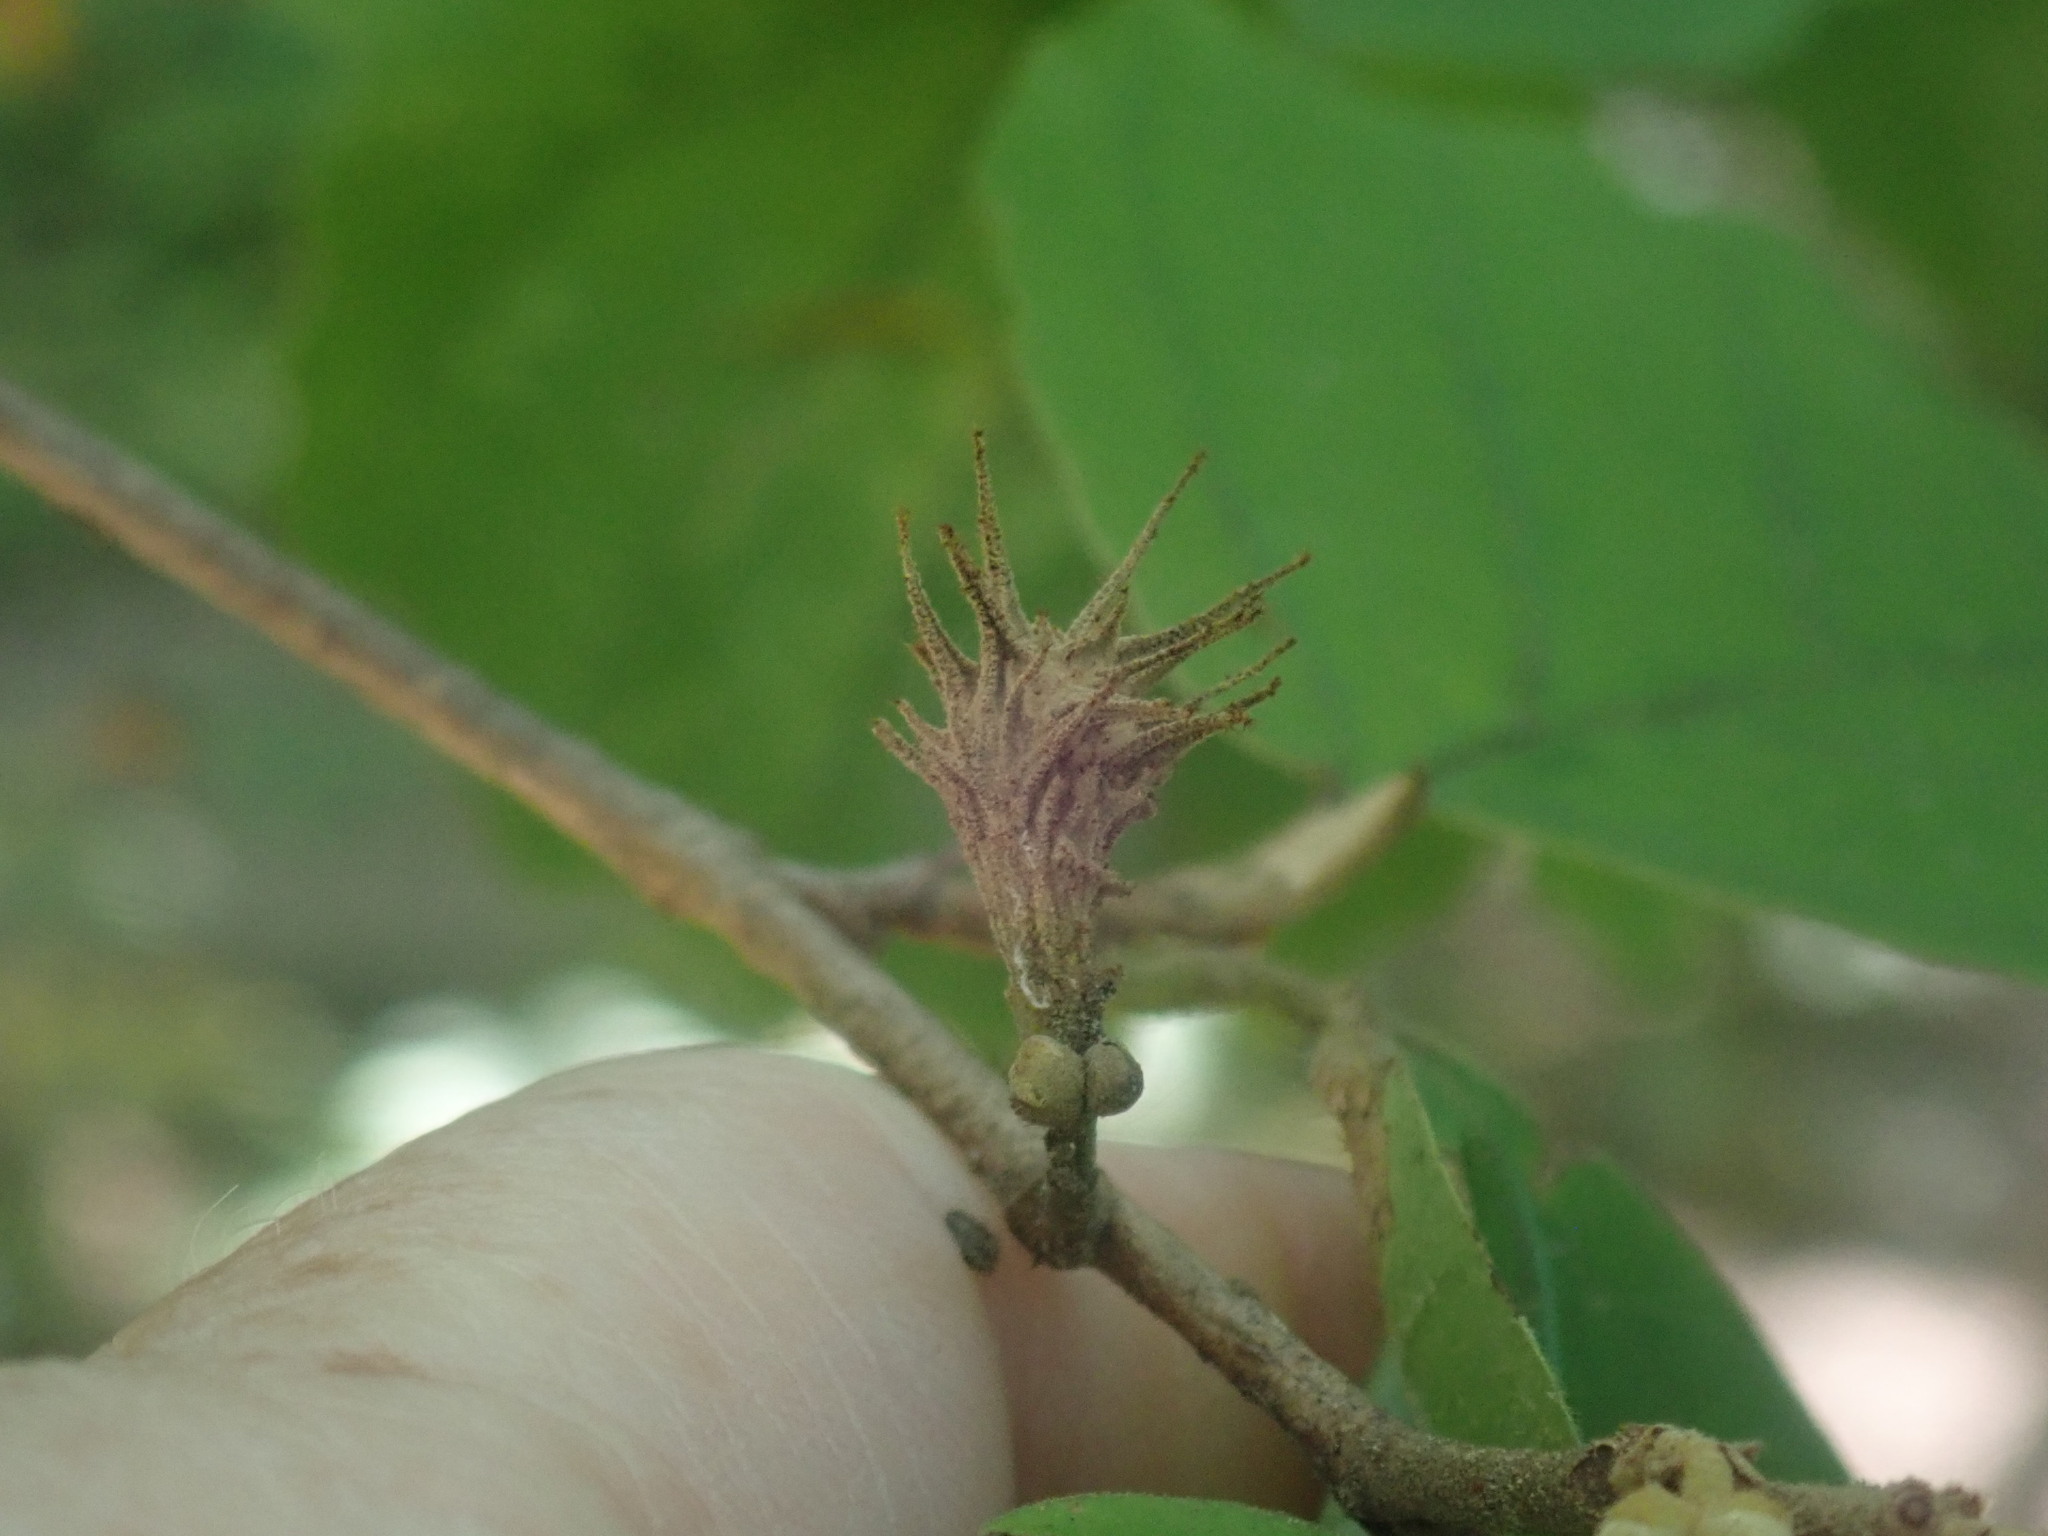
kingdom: Animalia
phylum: Arthropoda
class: Insecta
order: Hemiptera
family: Aphididae
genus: Hamamelistes
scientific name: Hamamelistes spinosus
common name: Witch hazel gall aphid
